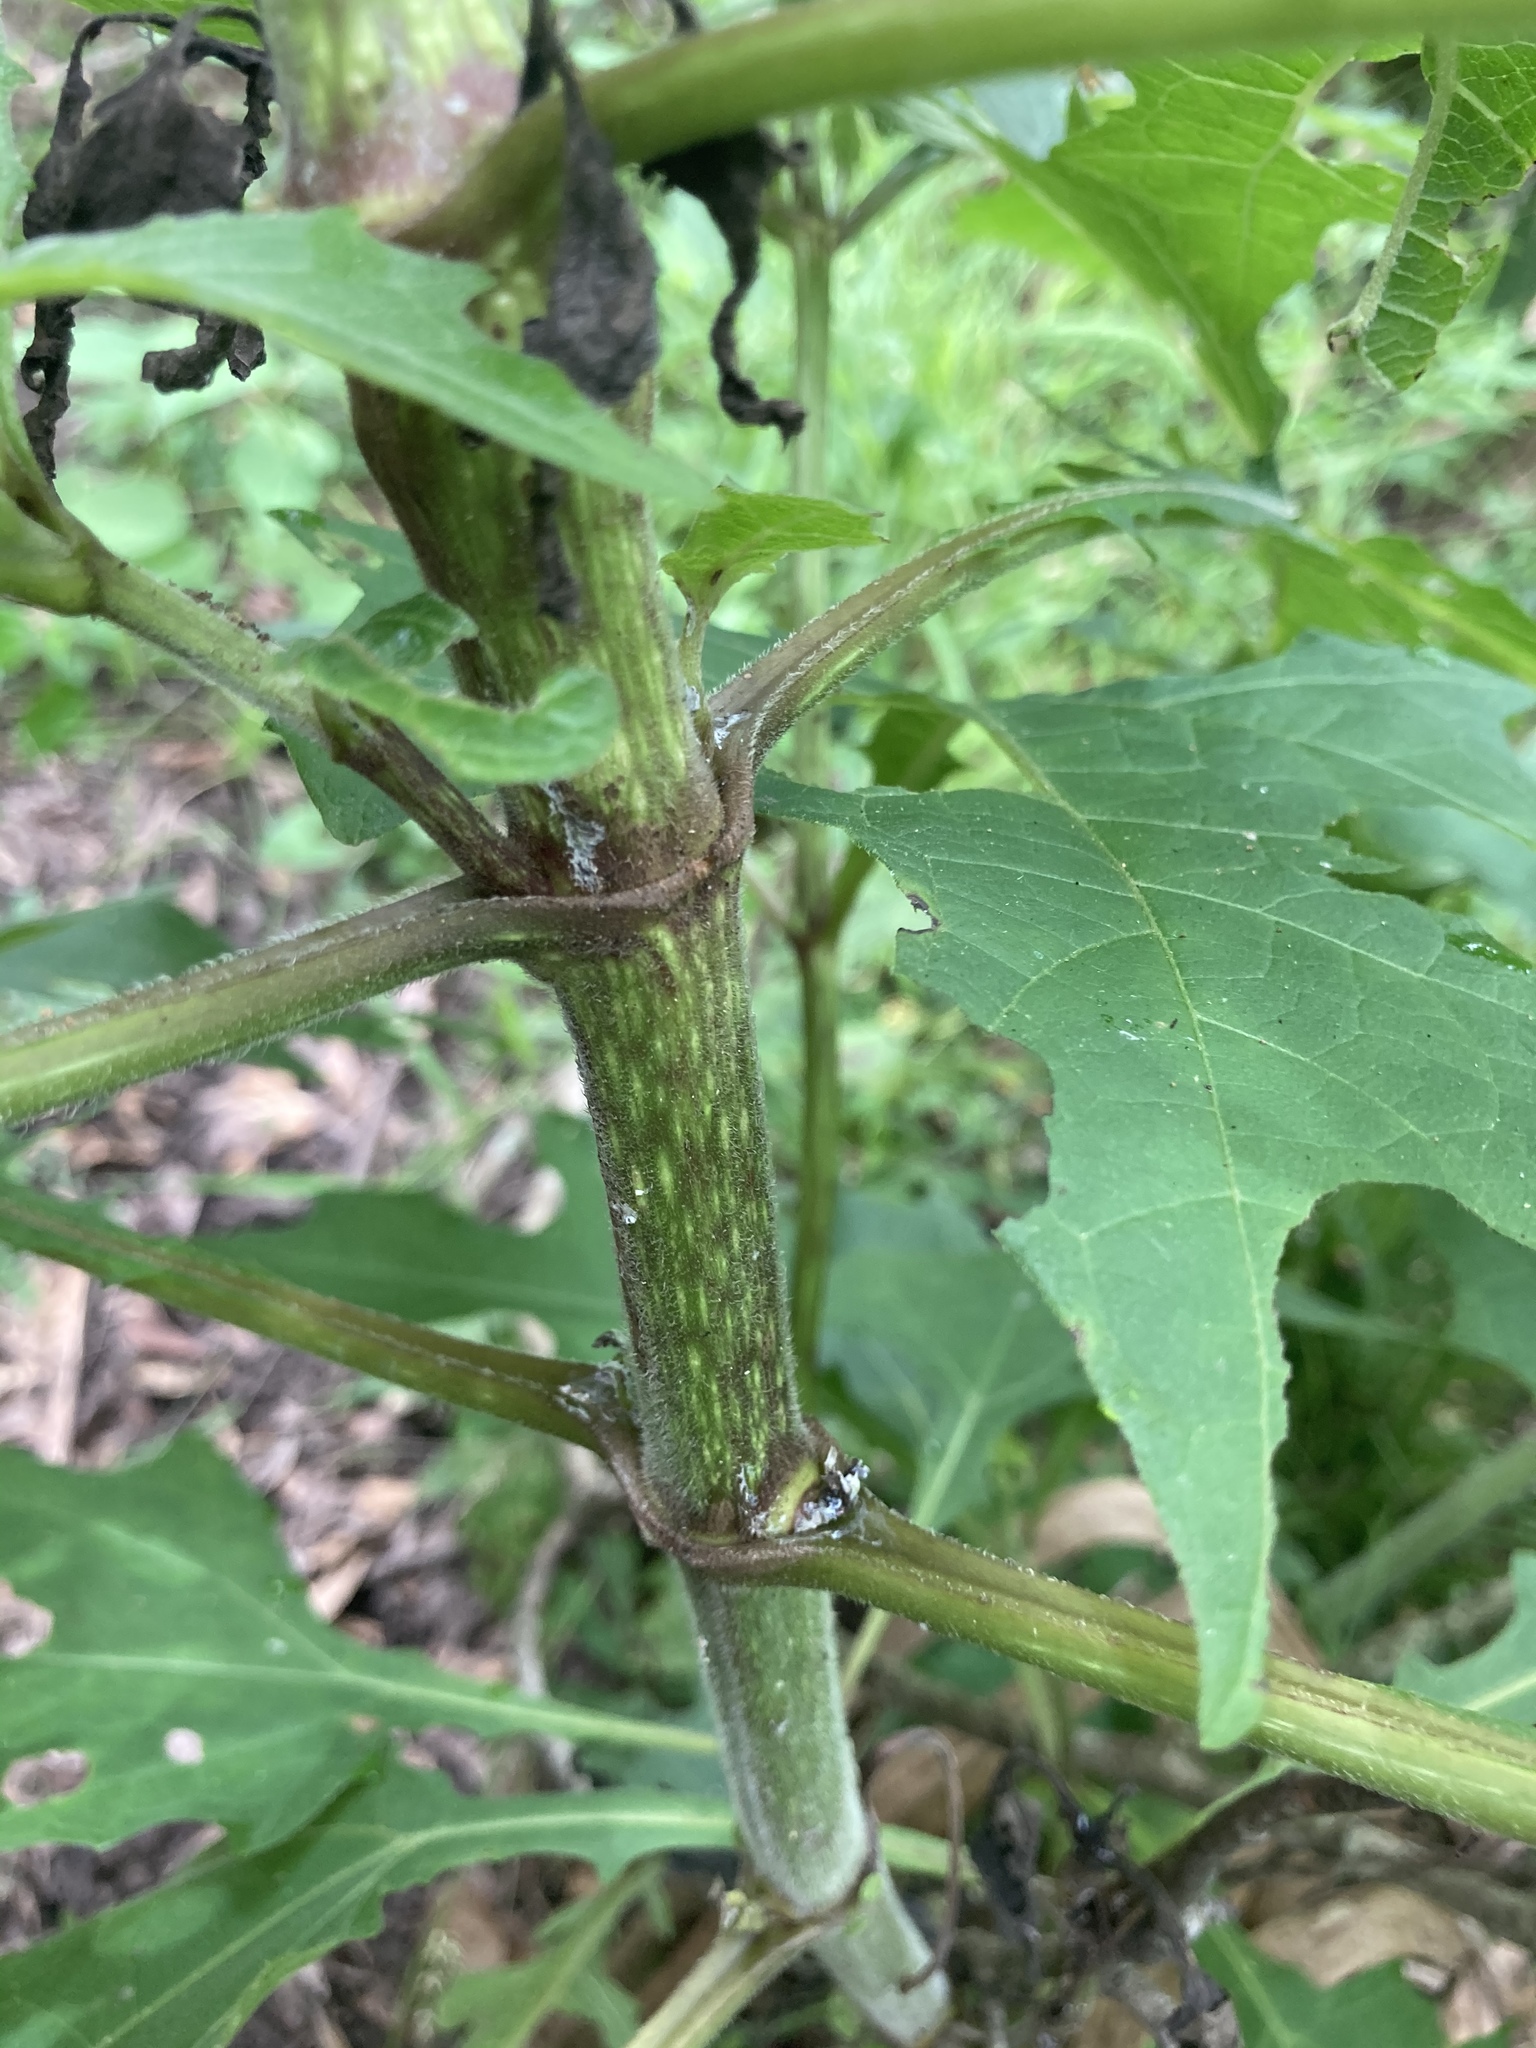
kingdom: Plantae
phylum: Tracheophyta
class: Magnoliopsida
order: Asterales
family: Asteraceae
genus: Smallanthus
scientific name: Smallanthus uvedalia
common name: Bear's-foot
